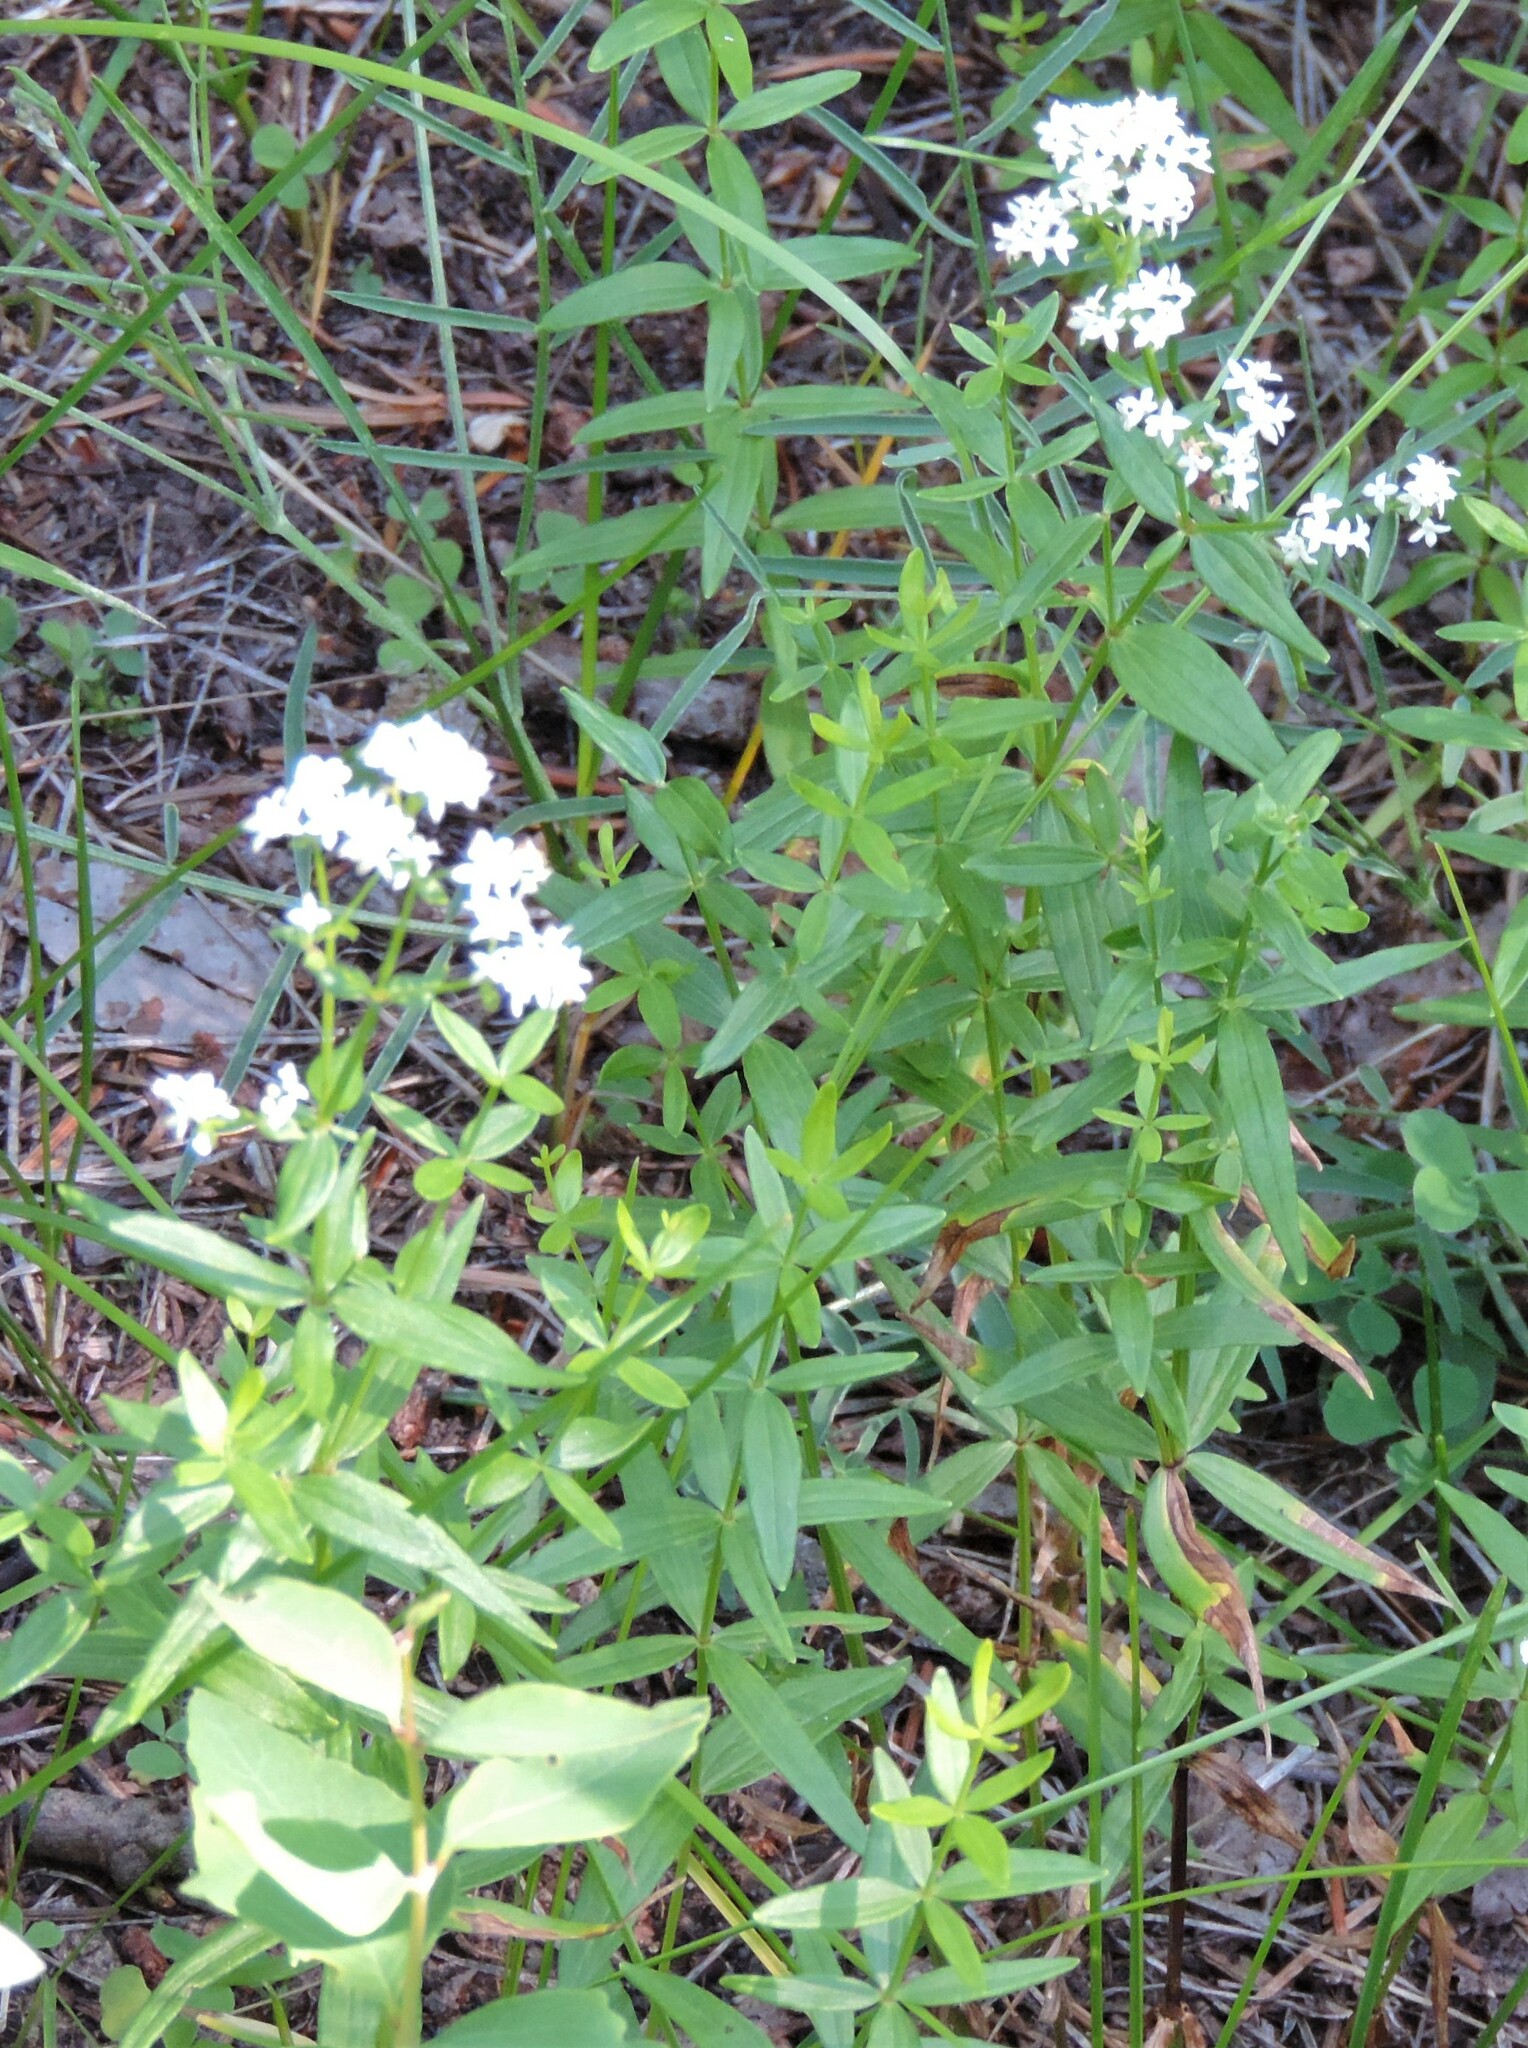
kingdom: Plantae
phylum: Tracheophyta
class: Magnoliopsida
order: Gentianales
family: Rubiaceae
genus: Galium
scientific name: Galium boreale
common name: Northern bedstraw
